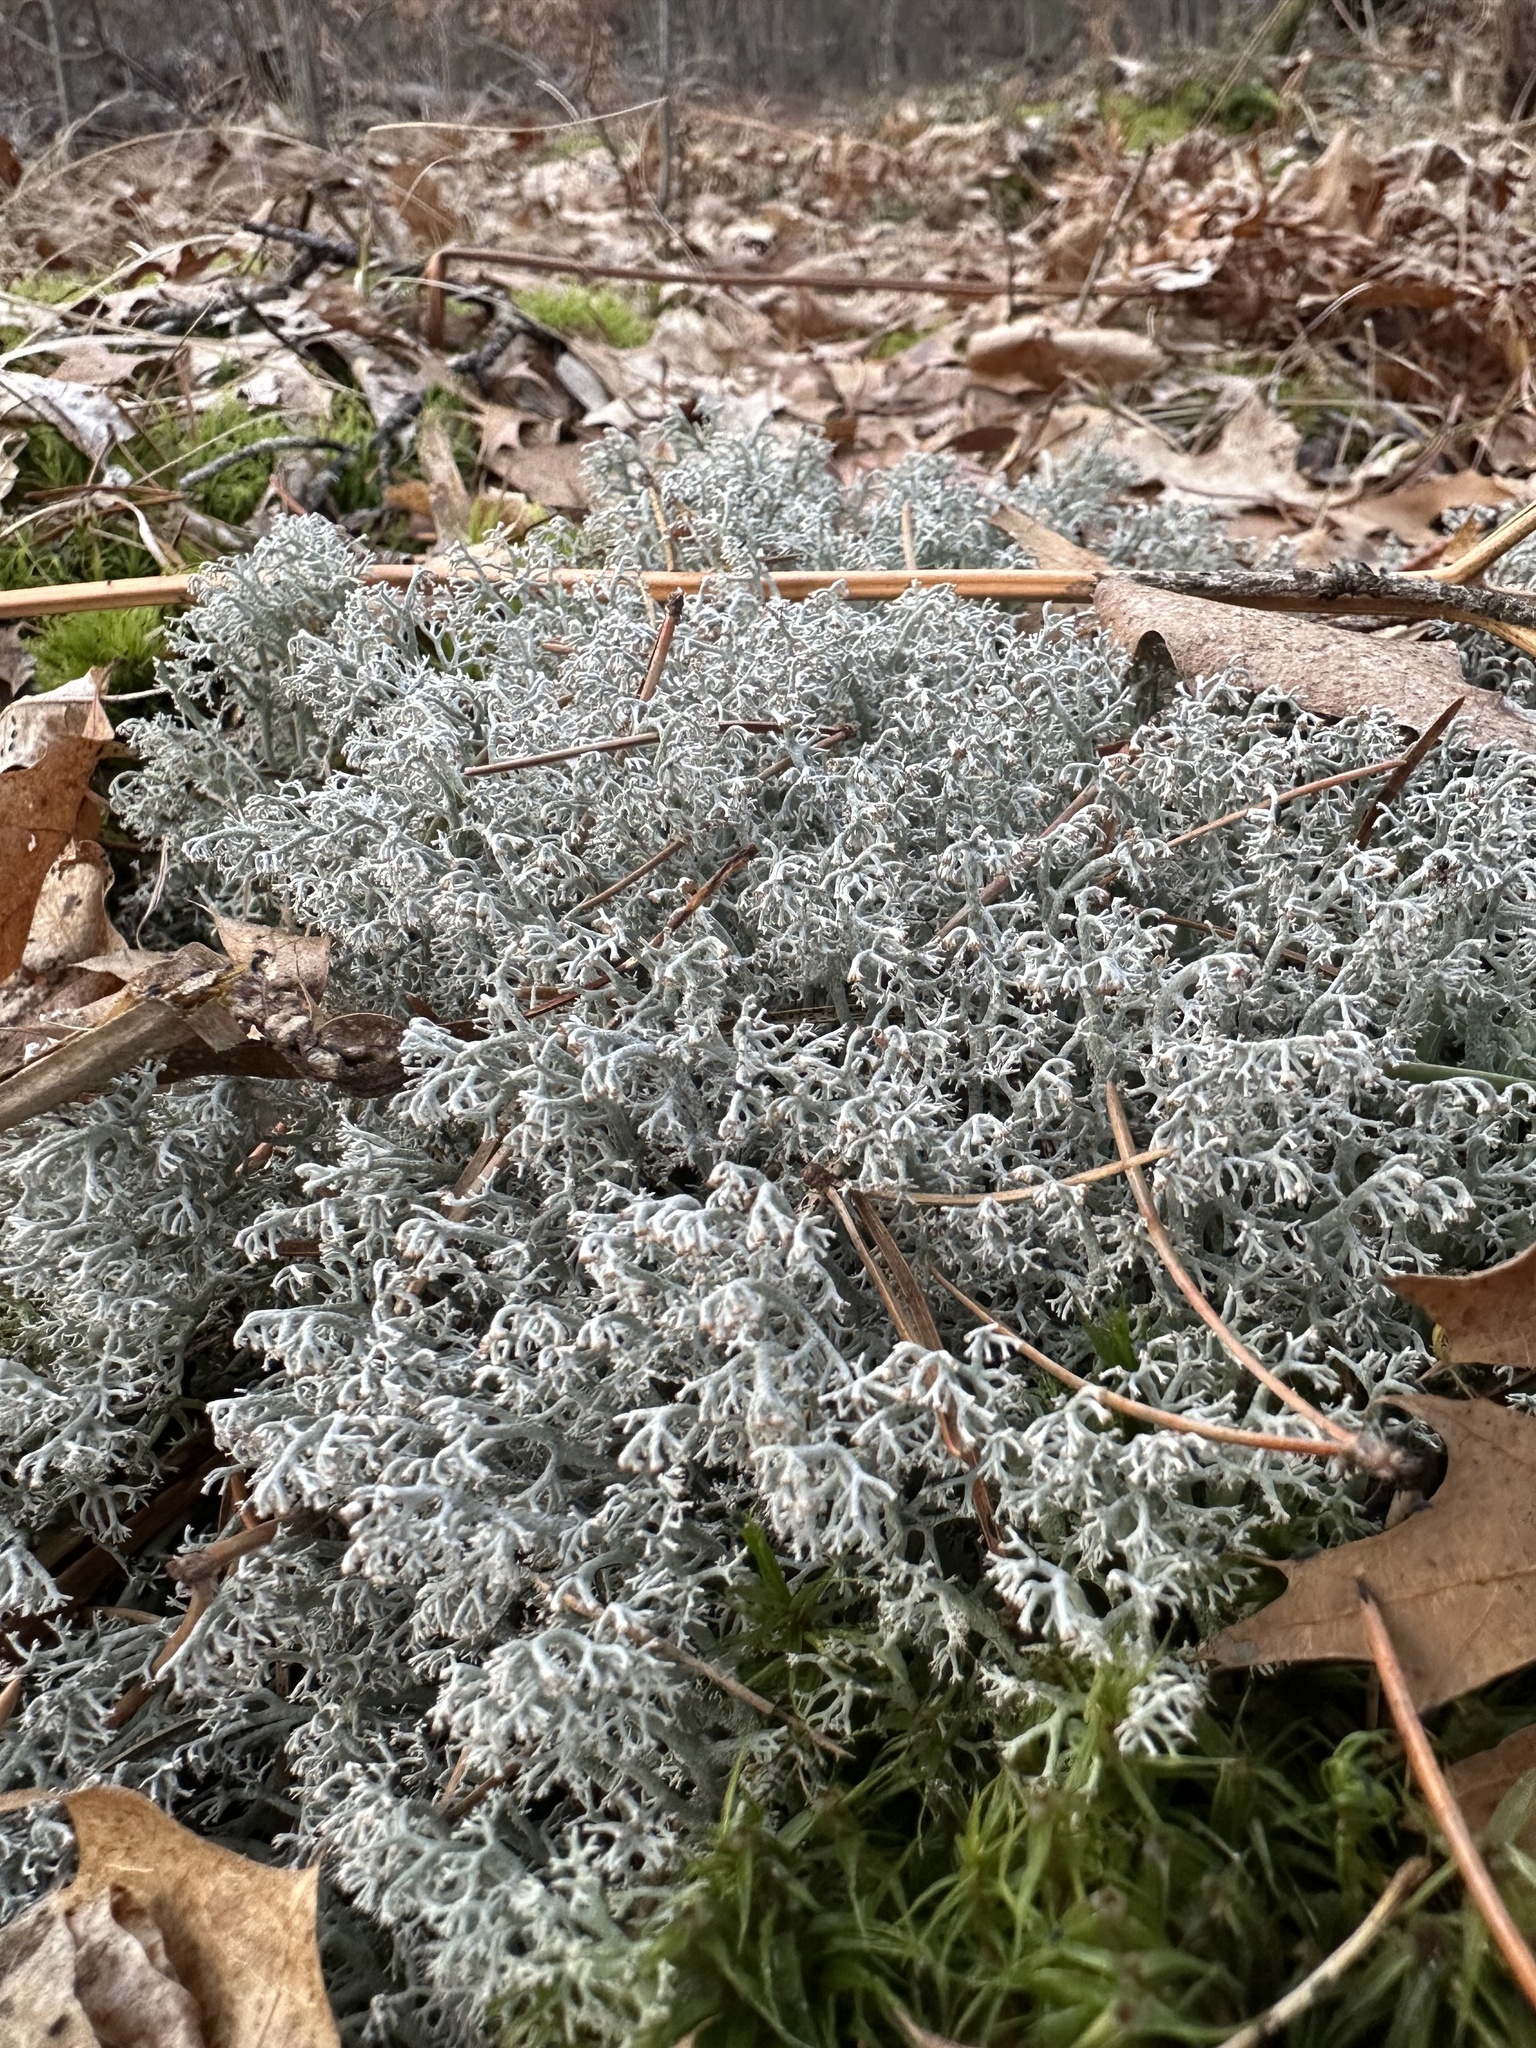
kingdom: Fungi
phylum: Ascomycota
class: Lecanoromycetes
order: Lecanorales
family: Cladoniaceae
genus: Cladonia
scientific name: Cladonia rangiferina
